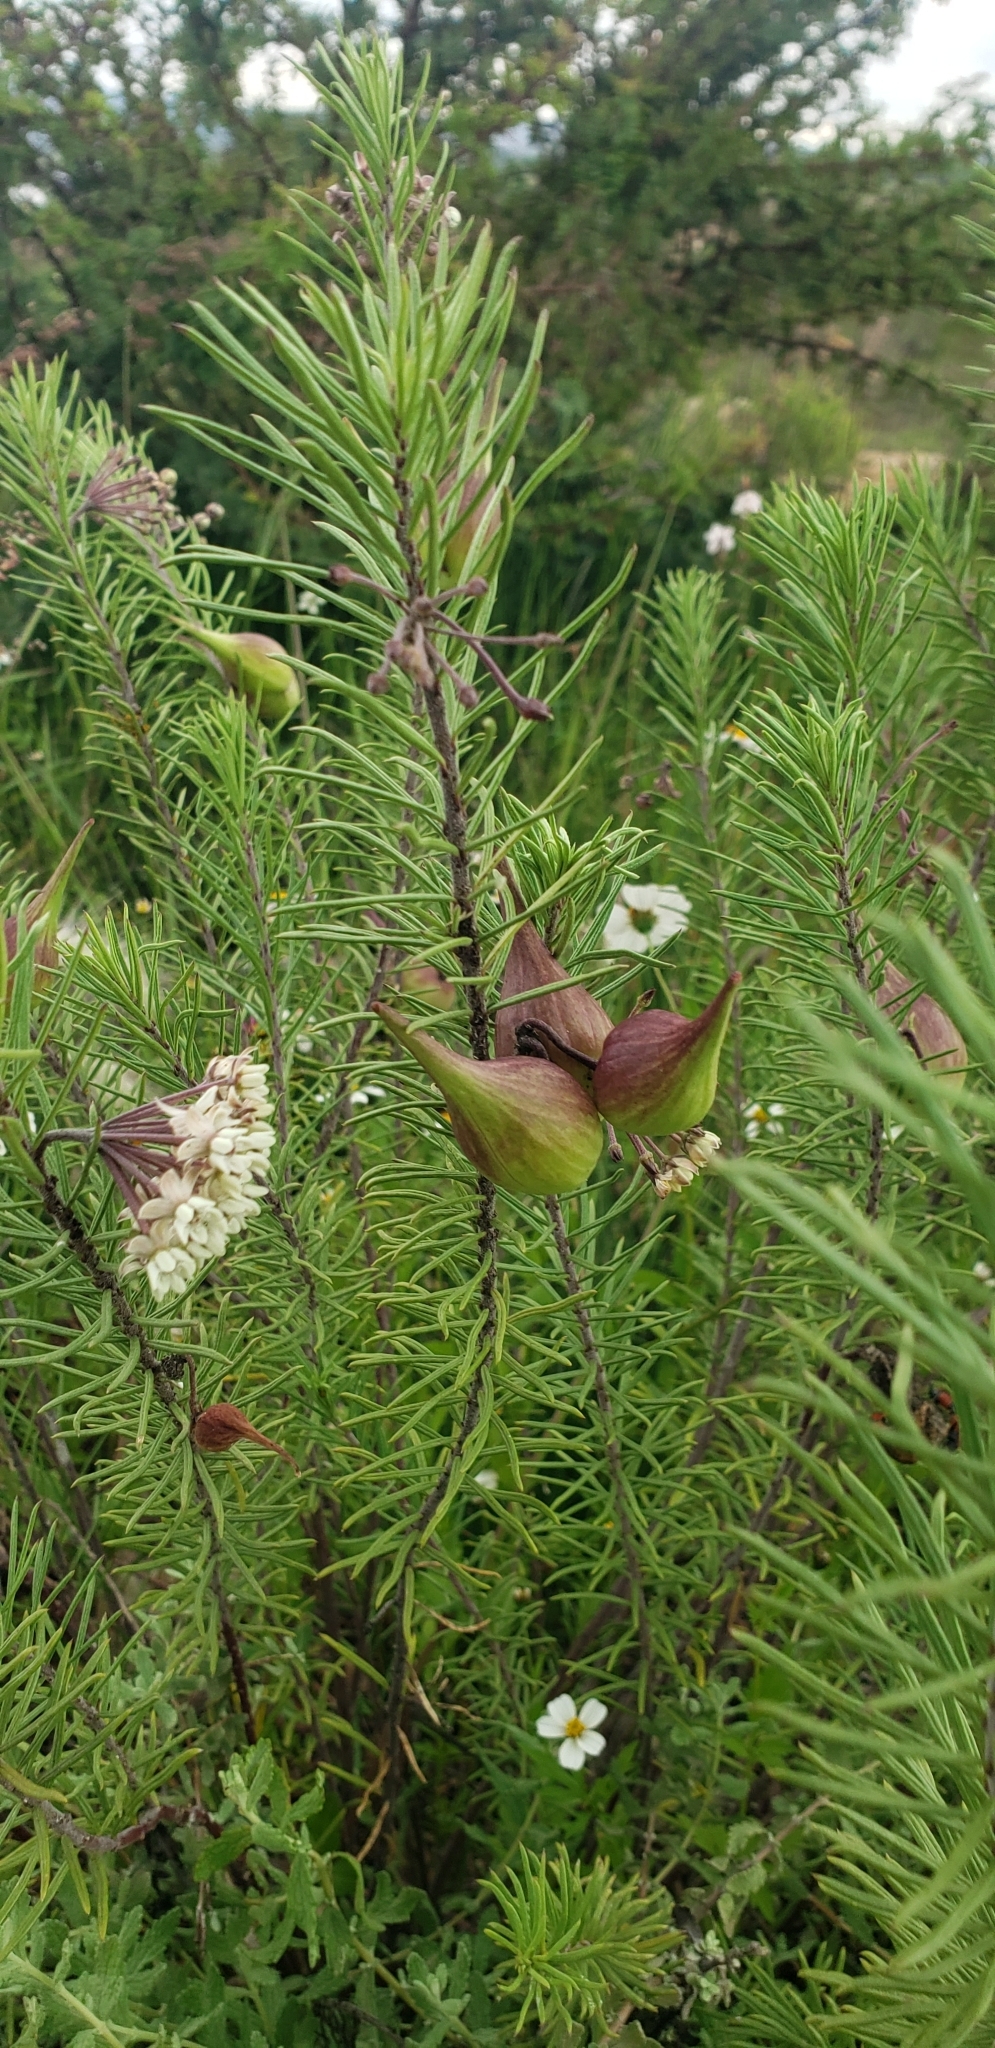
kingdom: Plantae
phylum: Tracheophyta
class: Magnoliopsida
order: Gentianales
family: Apocynaceae
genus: Asclepias
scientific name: Asclepias linaria
